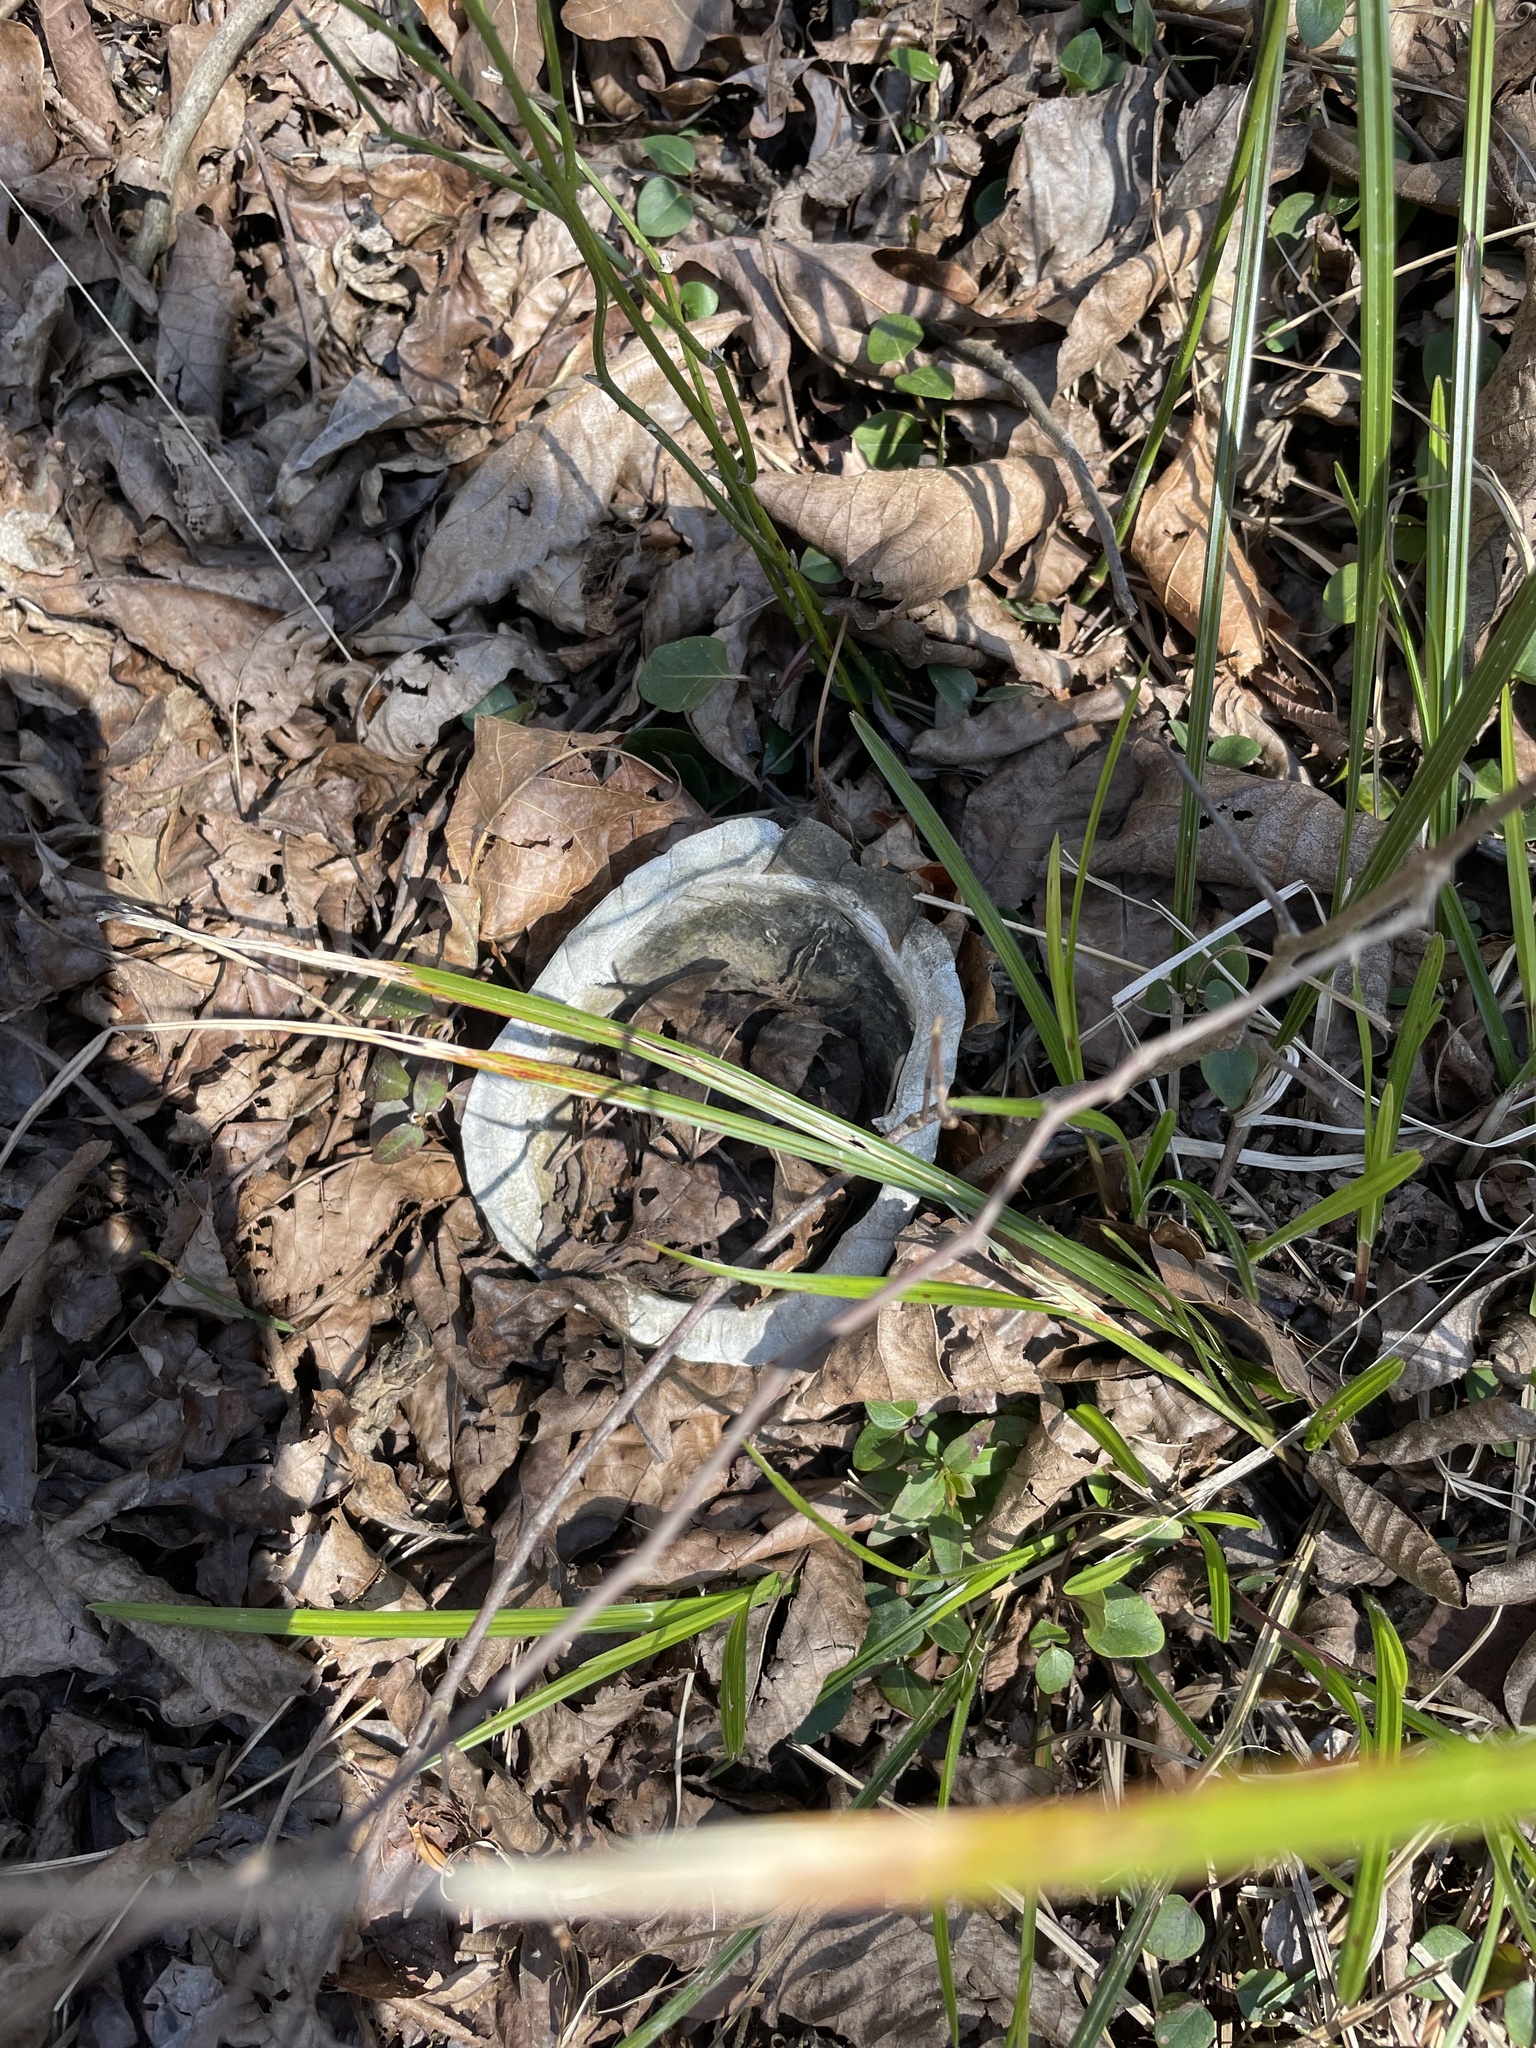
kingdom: Animalia
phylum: Chordata
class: Testudines
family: Emydidae
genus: Terrapene
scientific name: Terrapene carolina
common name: Common box turtle
